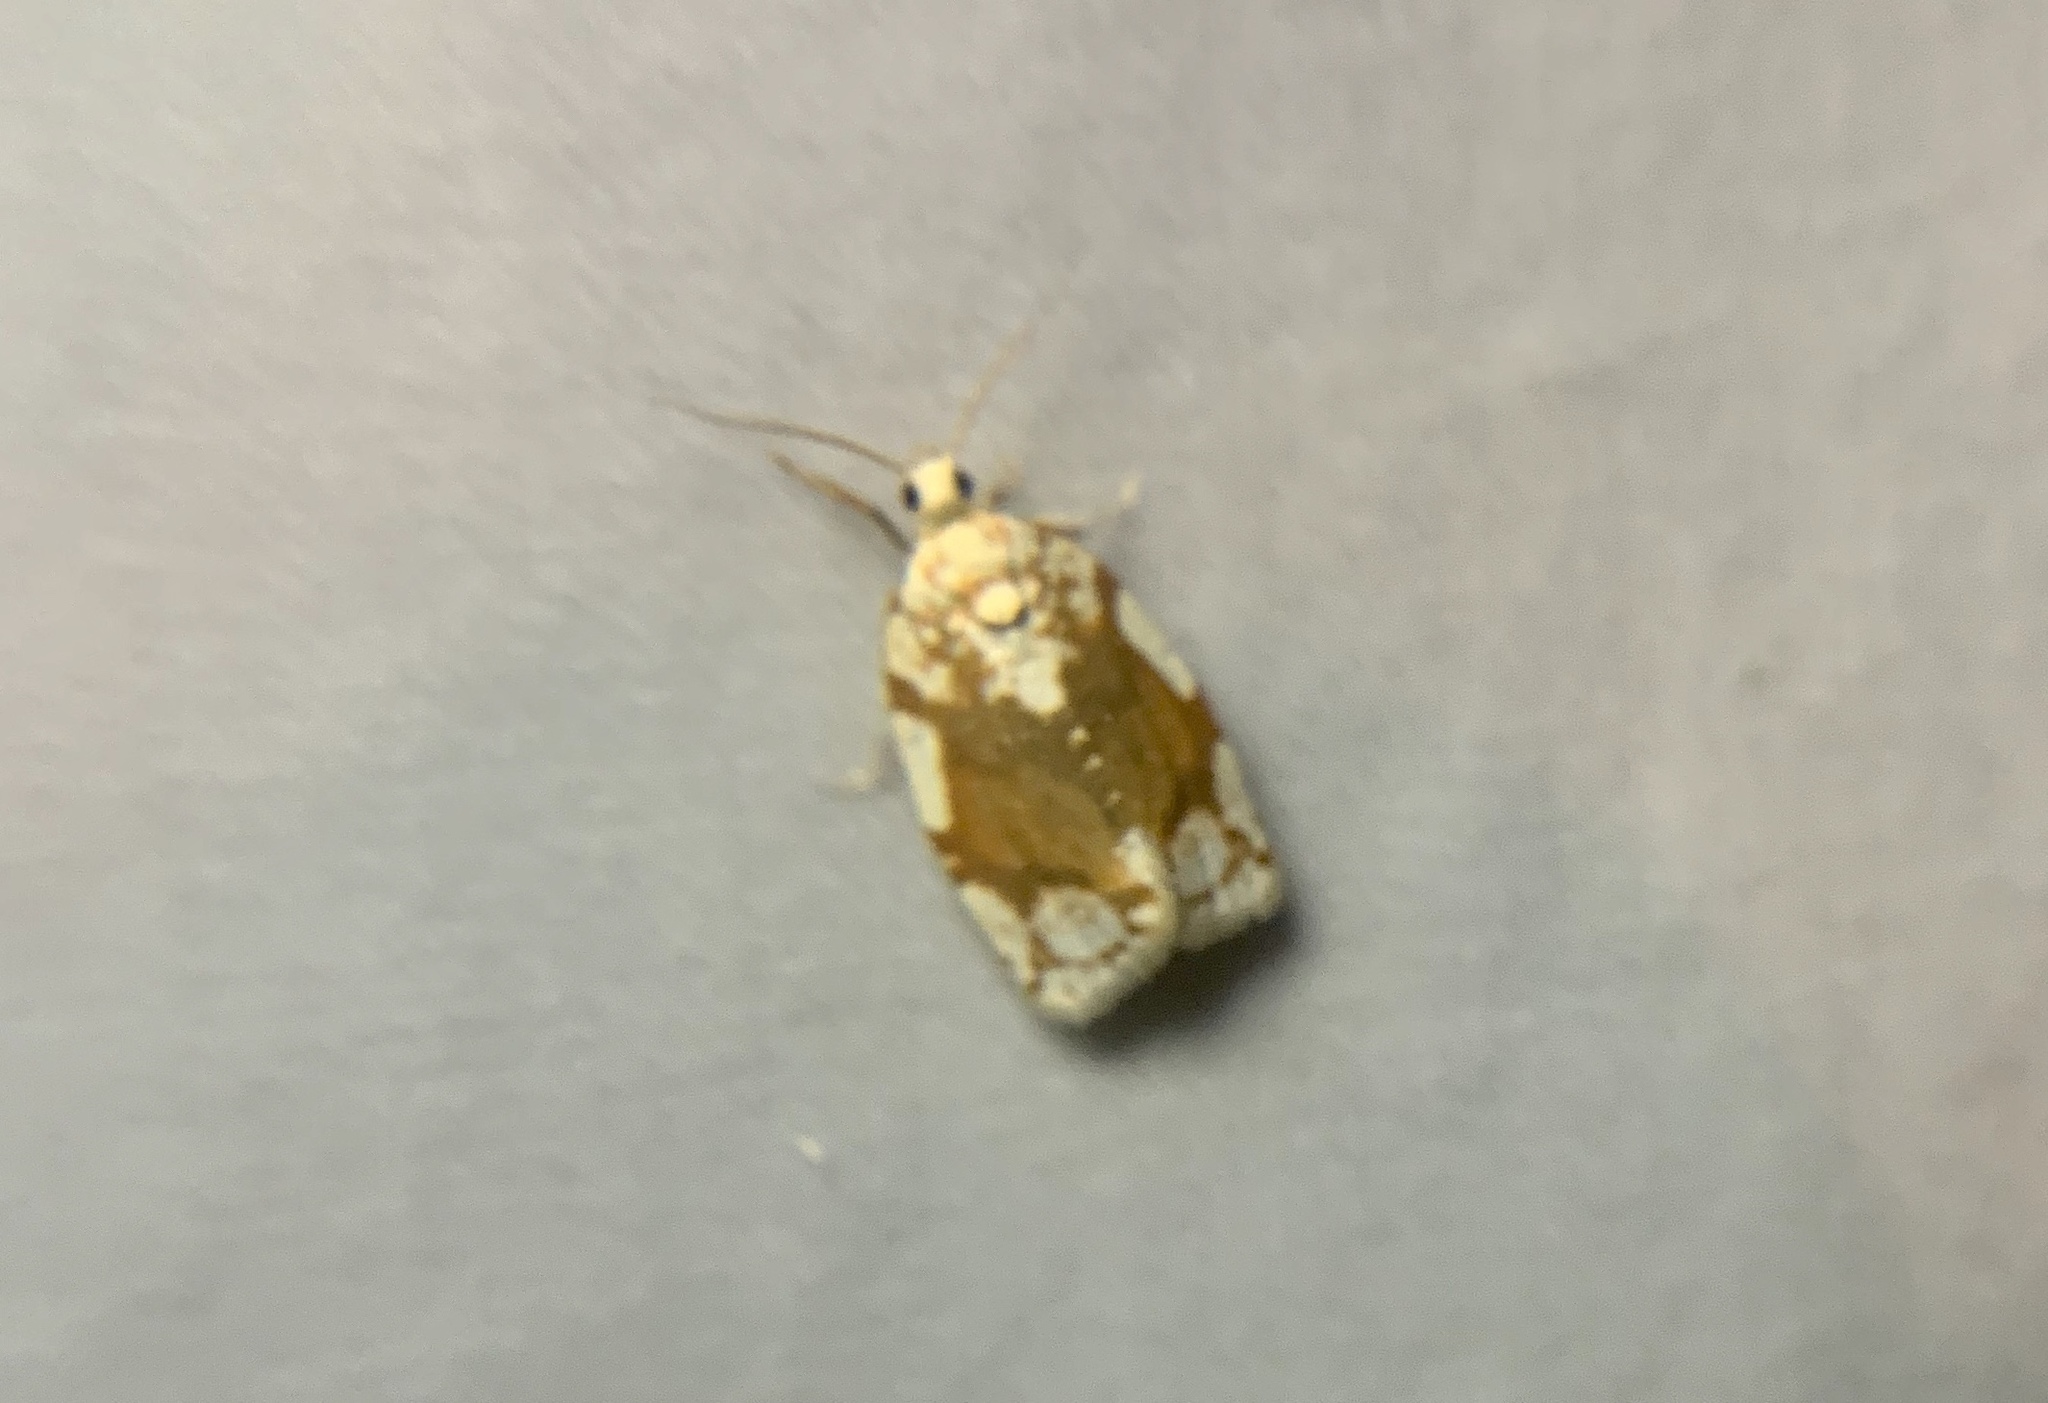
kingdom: Animalia
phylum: Arthropoda
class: Insecta
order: Lepidoptera
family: Tortricidae
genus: Argyrotaenia
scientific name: Argyrotaenia alisellana
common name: White-spotted leafroller moth
